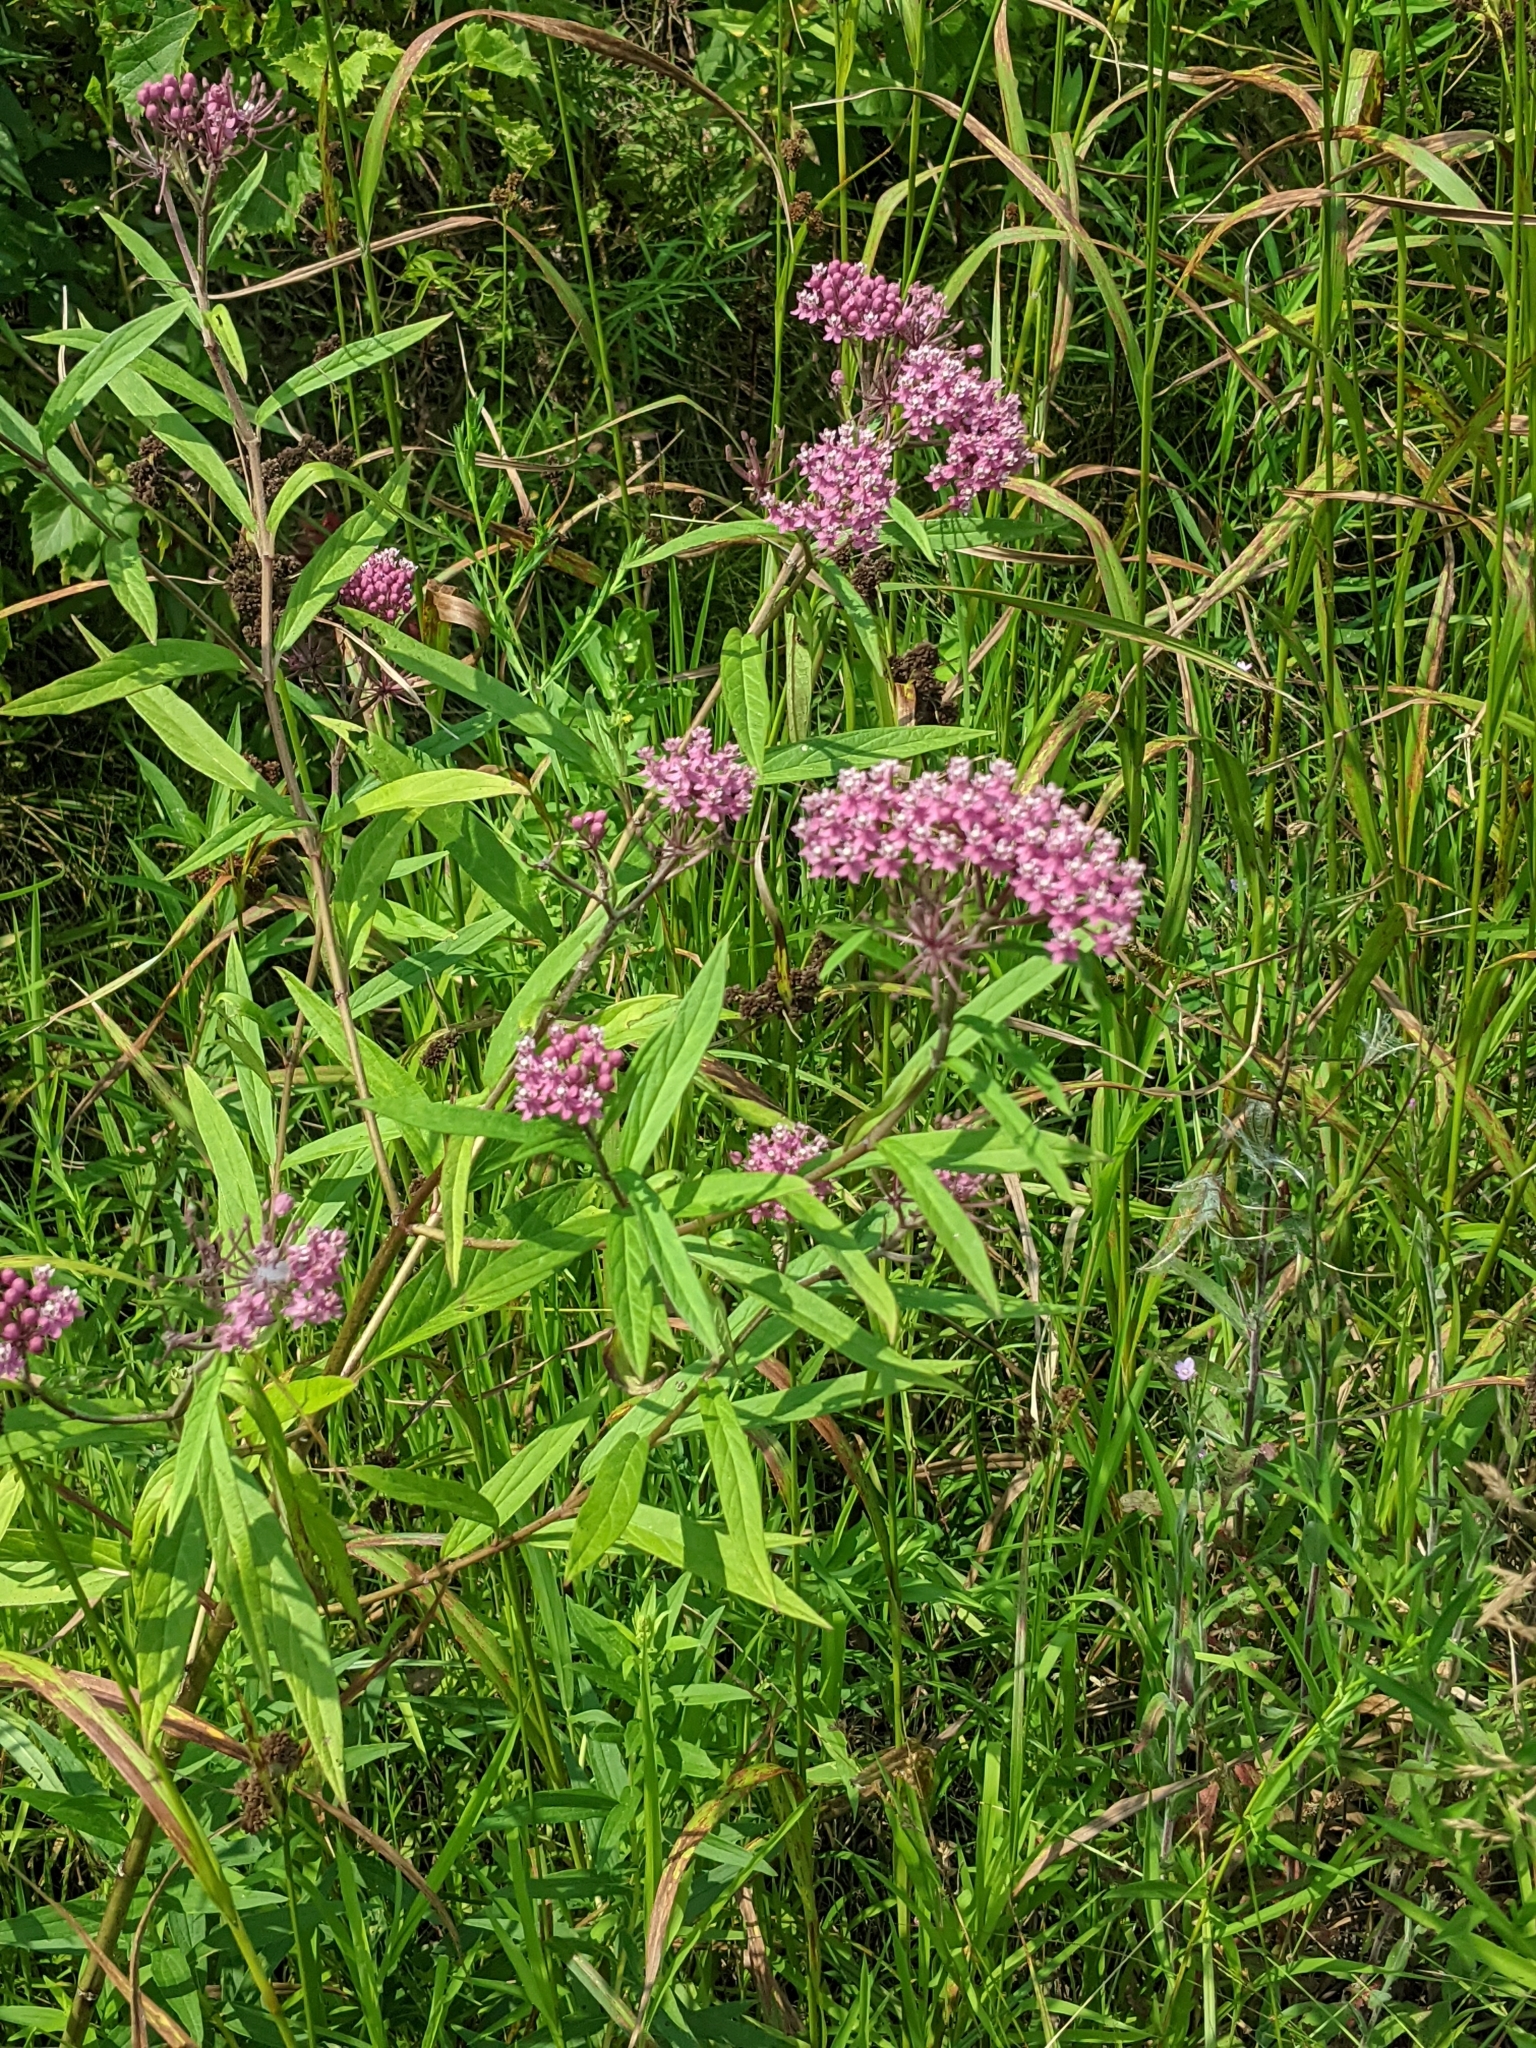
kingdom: Plantae
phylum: Tracheophyta
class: Magnoliopsida
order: Gentianales
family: Apocynaceae
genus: Asclepias
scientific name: Asclepias incarnata
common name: Swamp milkweed
